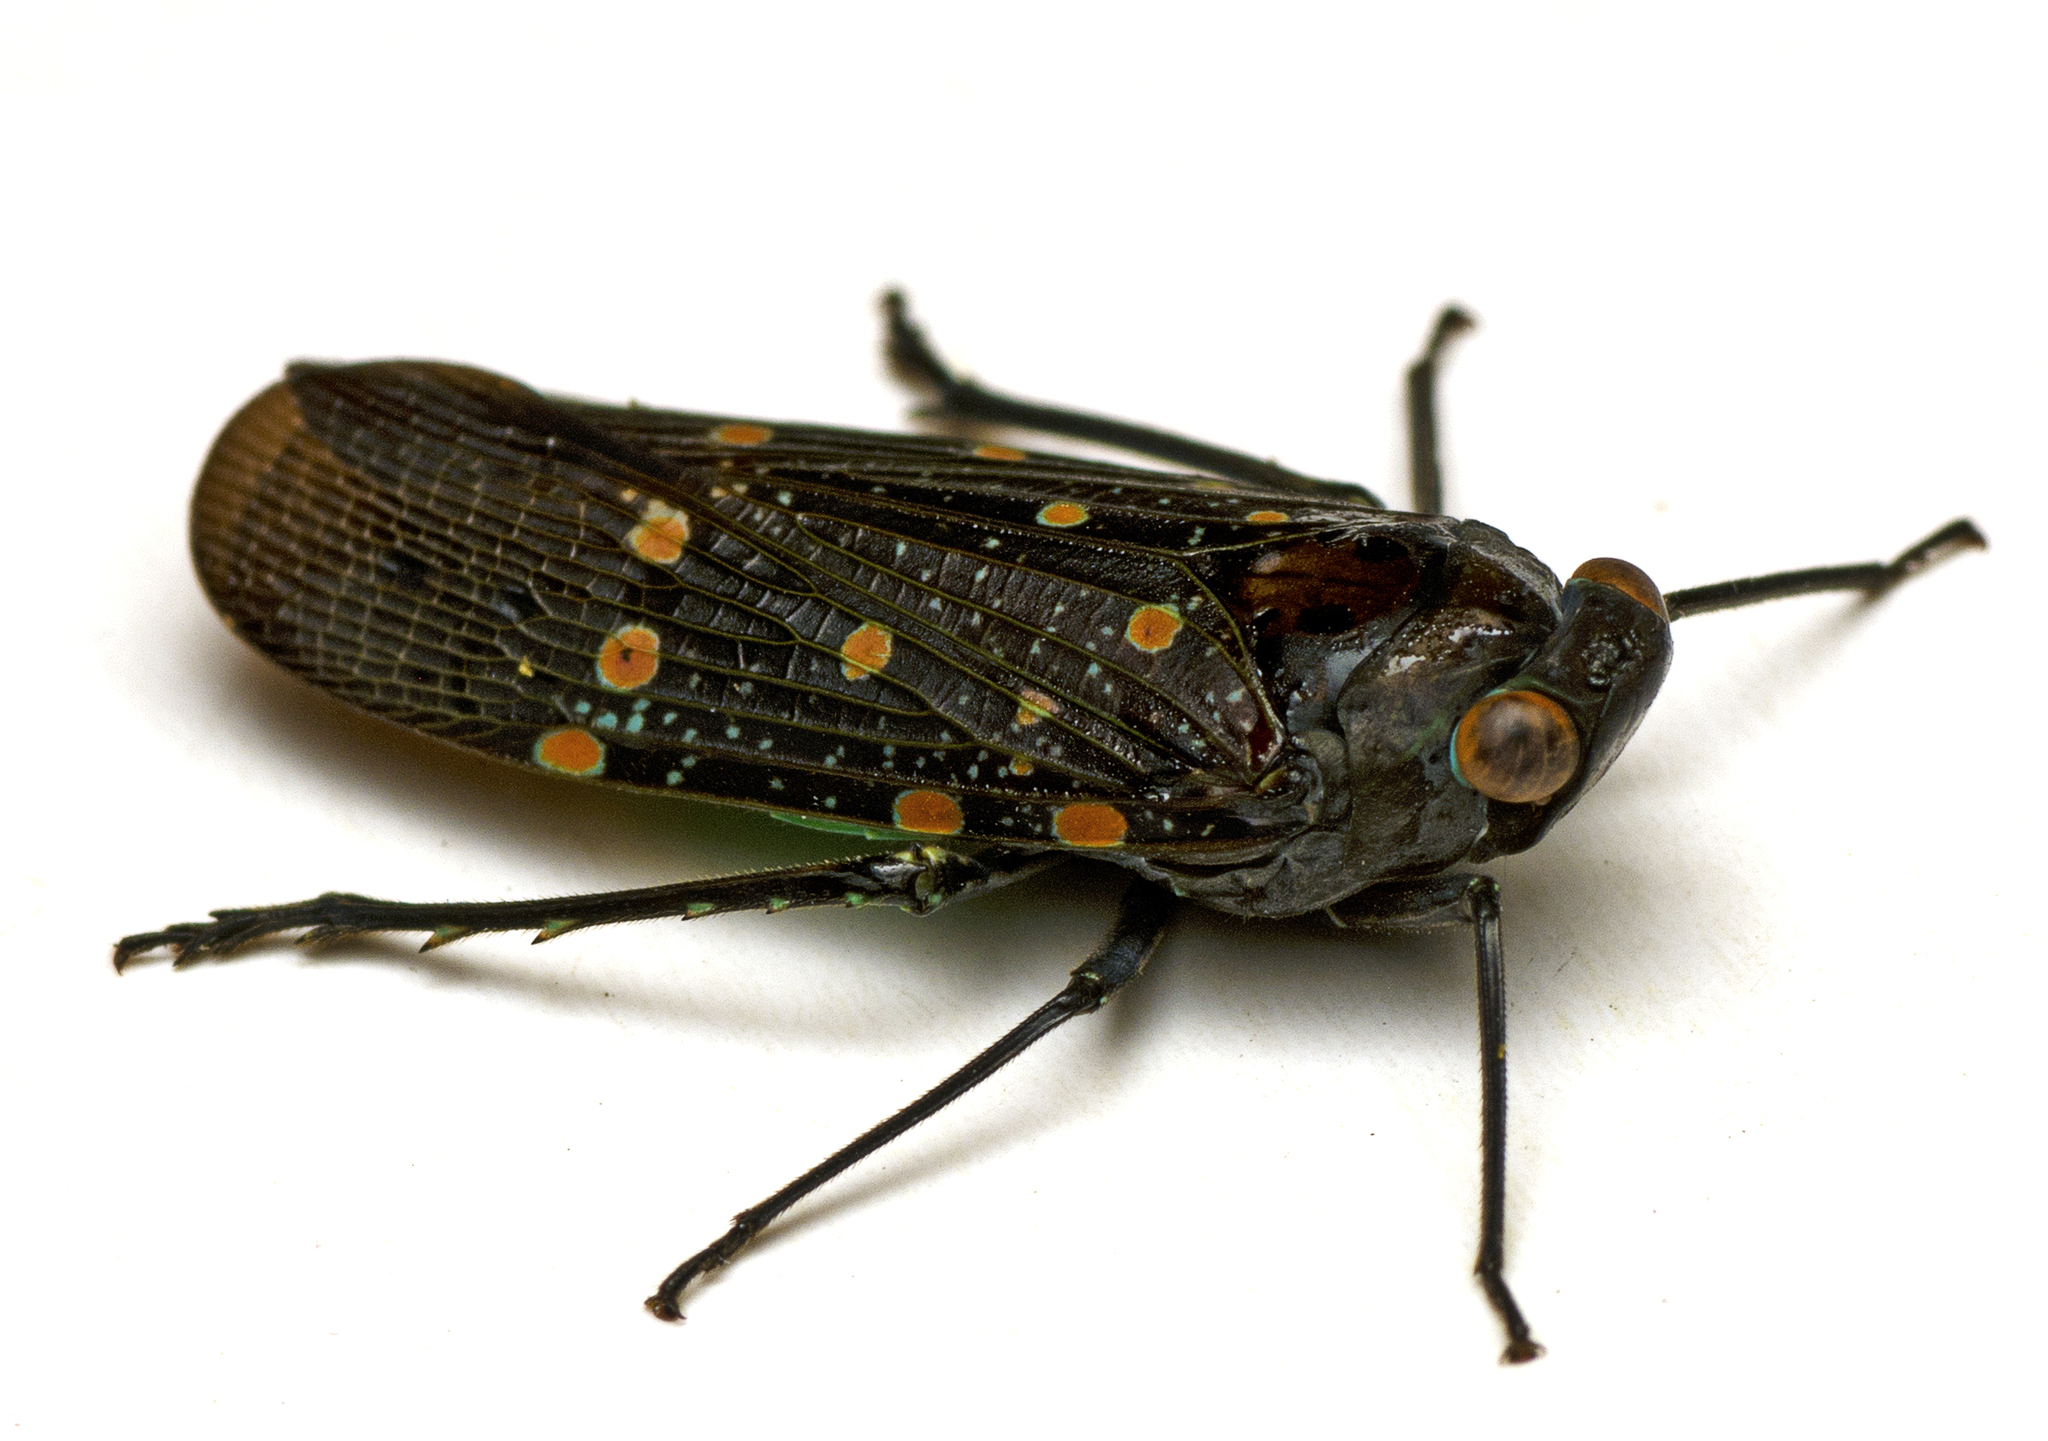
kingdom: Animalia
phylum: Arthropoda
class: Insecta
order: Hemiptera
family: Fulgoridae
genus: Desudaba
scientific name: Desudaba maculata
